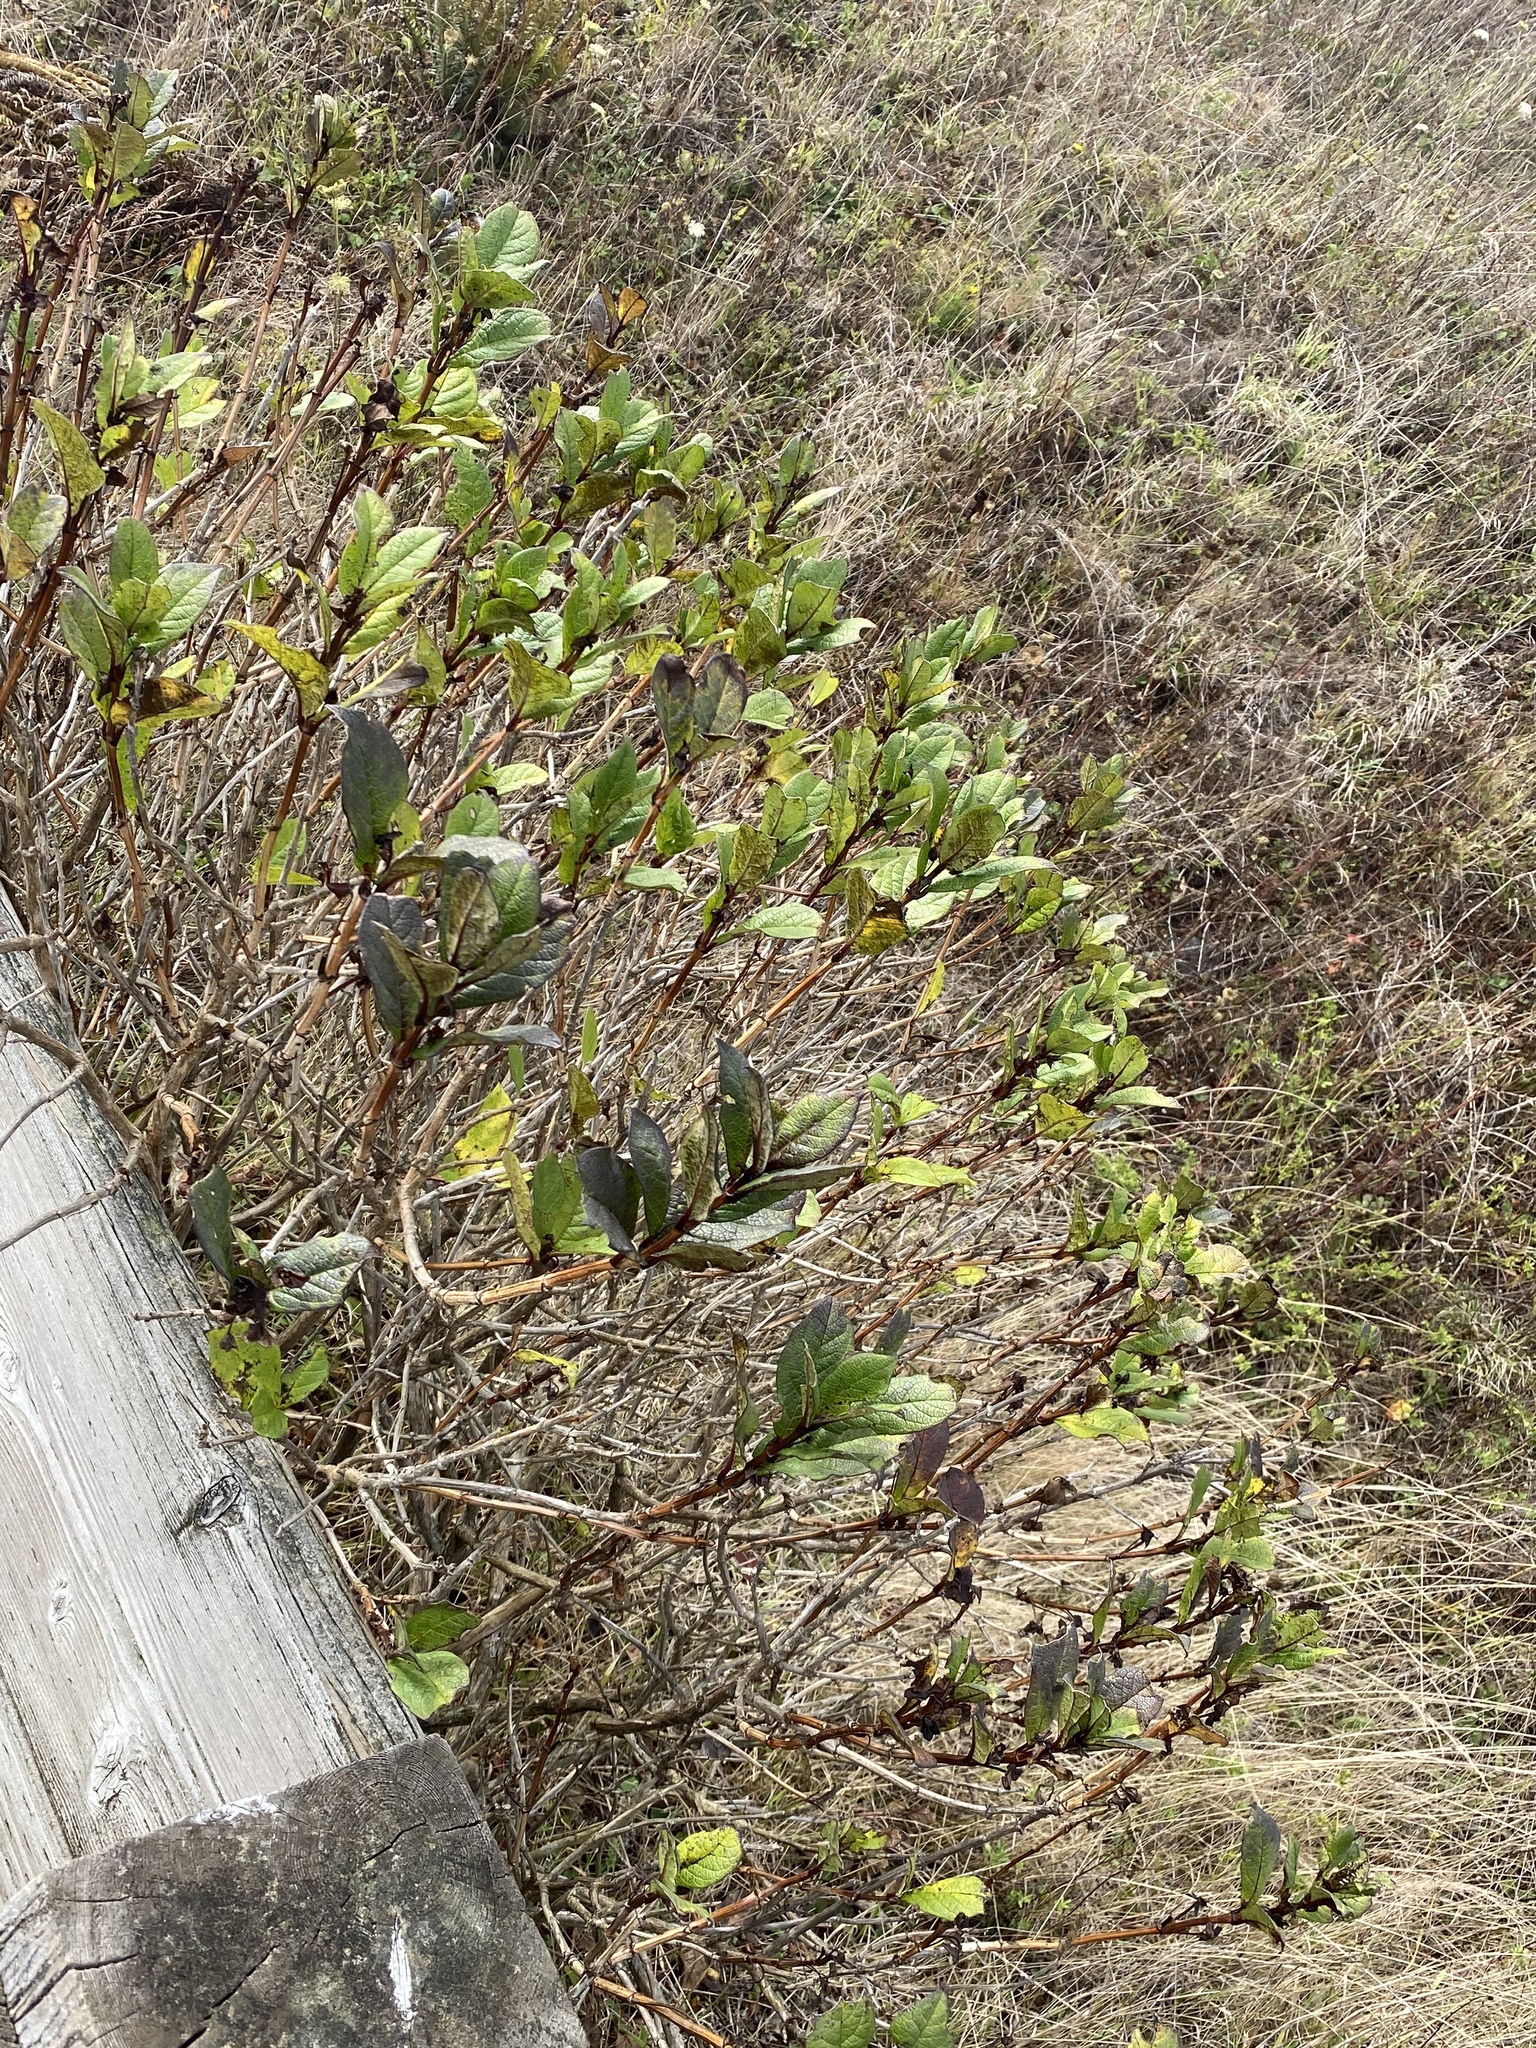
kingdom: Plantae
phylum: Tracheophyta
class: Magnoliopsida
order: Dipsacales
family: Caprifoliaceae
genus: Lonicera
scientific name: Lonicera involucrata
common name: Californian honeysuckle
